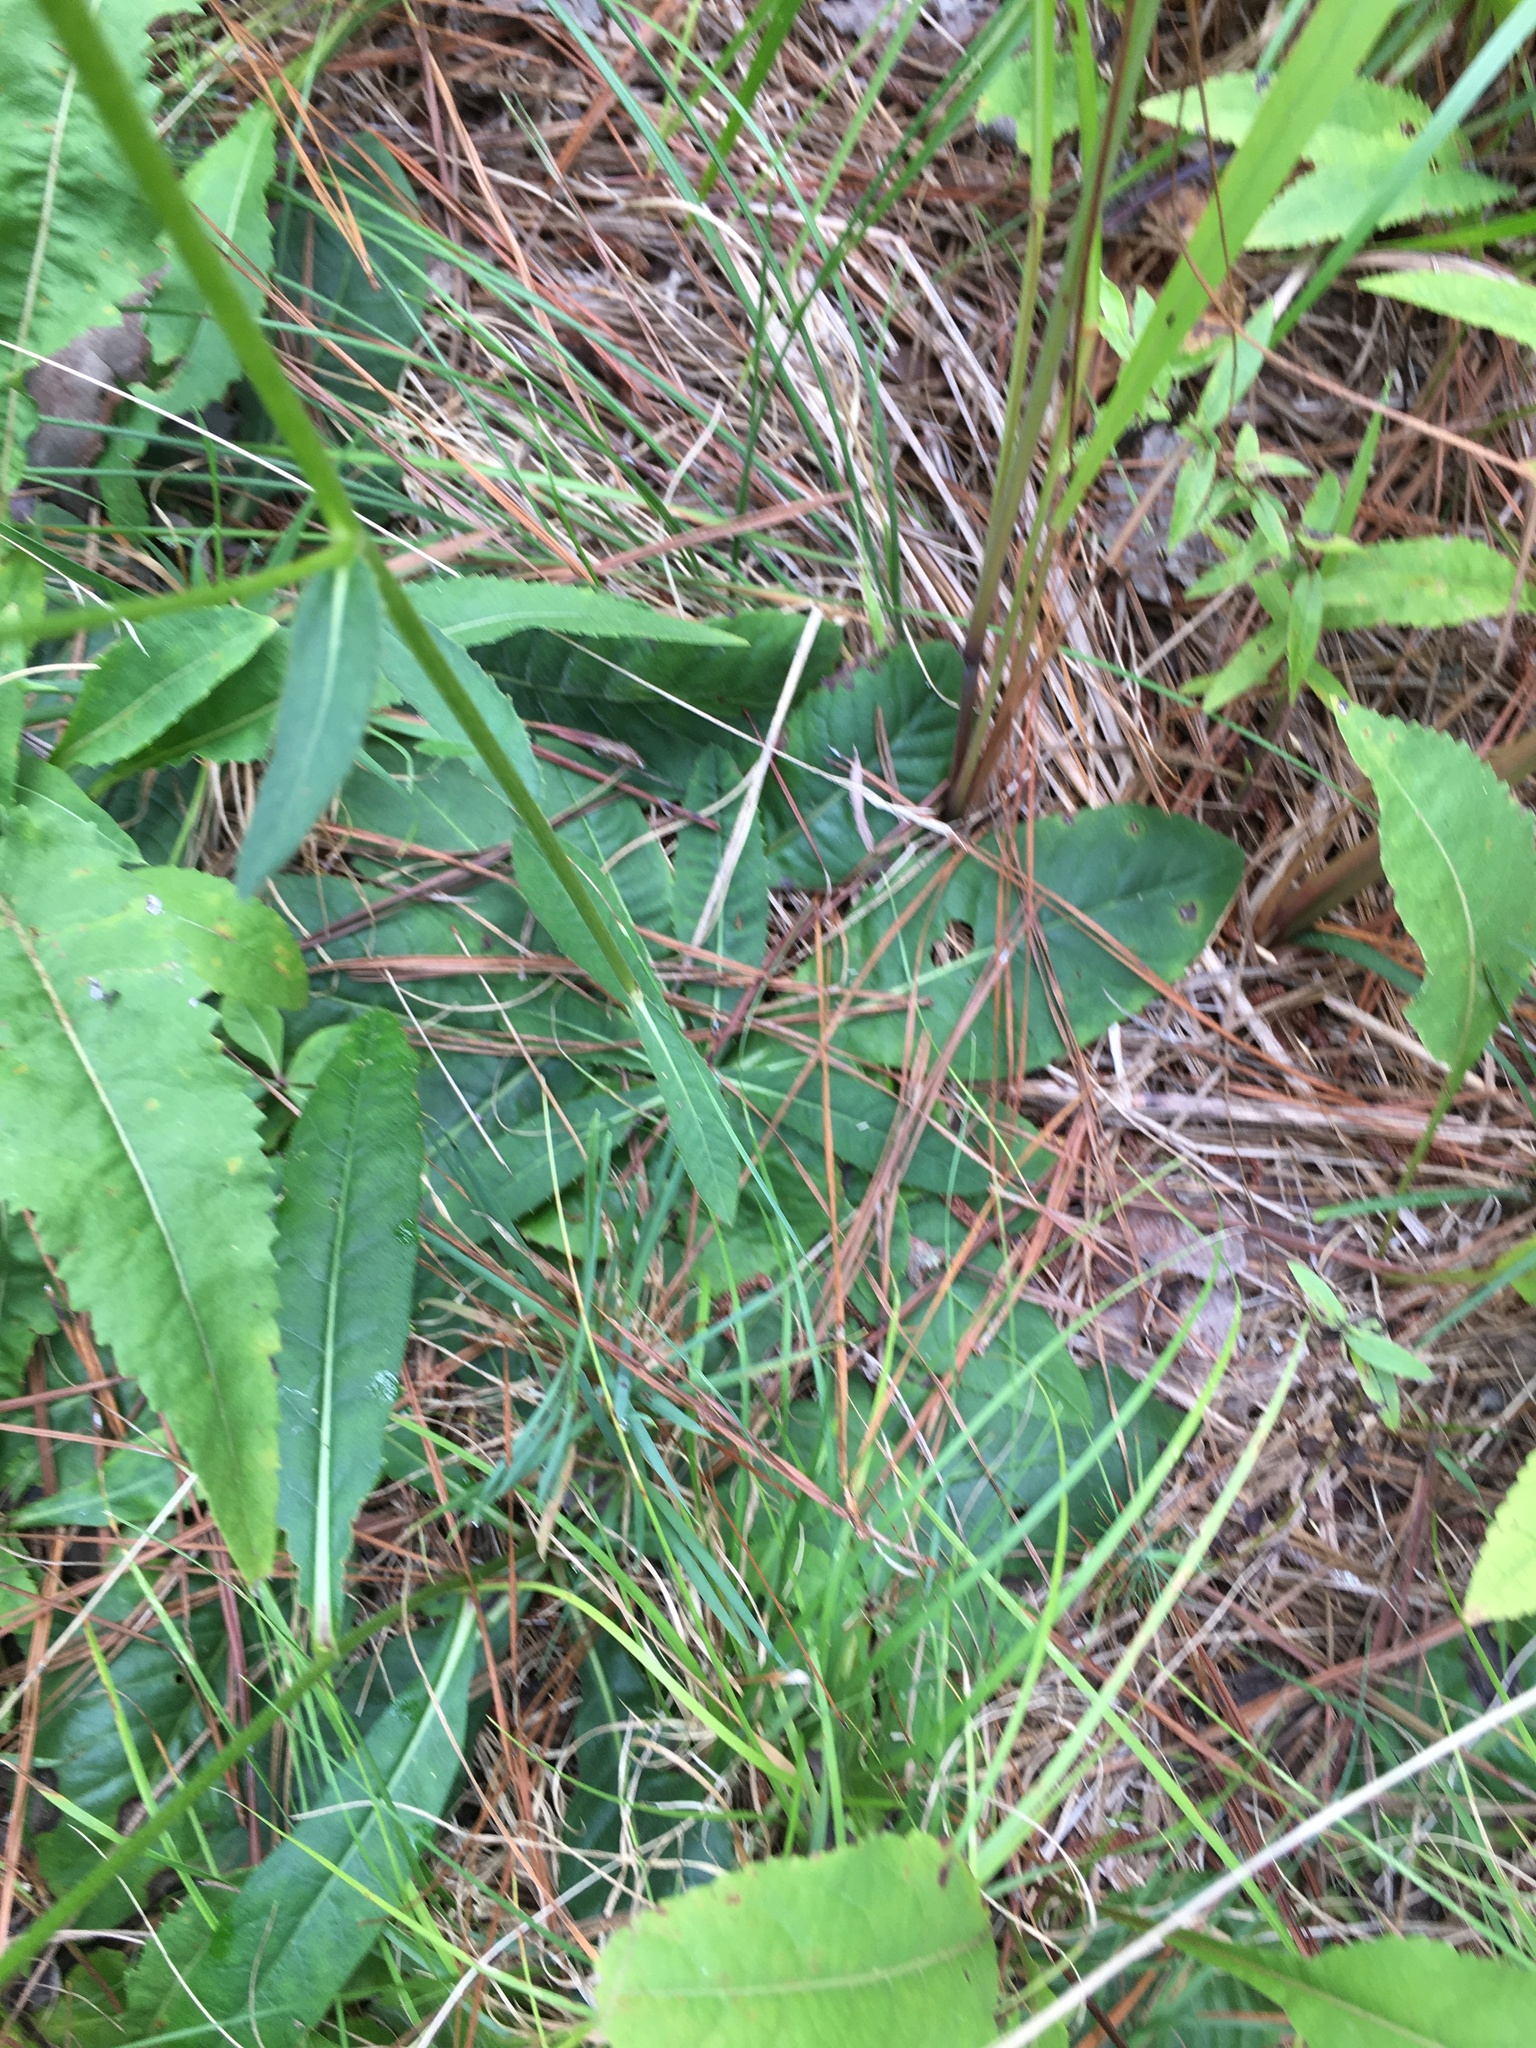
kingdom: Plantae
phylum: Tracheophyta
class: Magnoliopsida
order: Asterales
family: Asteraceae
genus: Vernonia
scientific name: Vernonia acaulis
